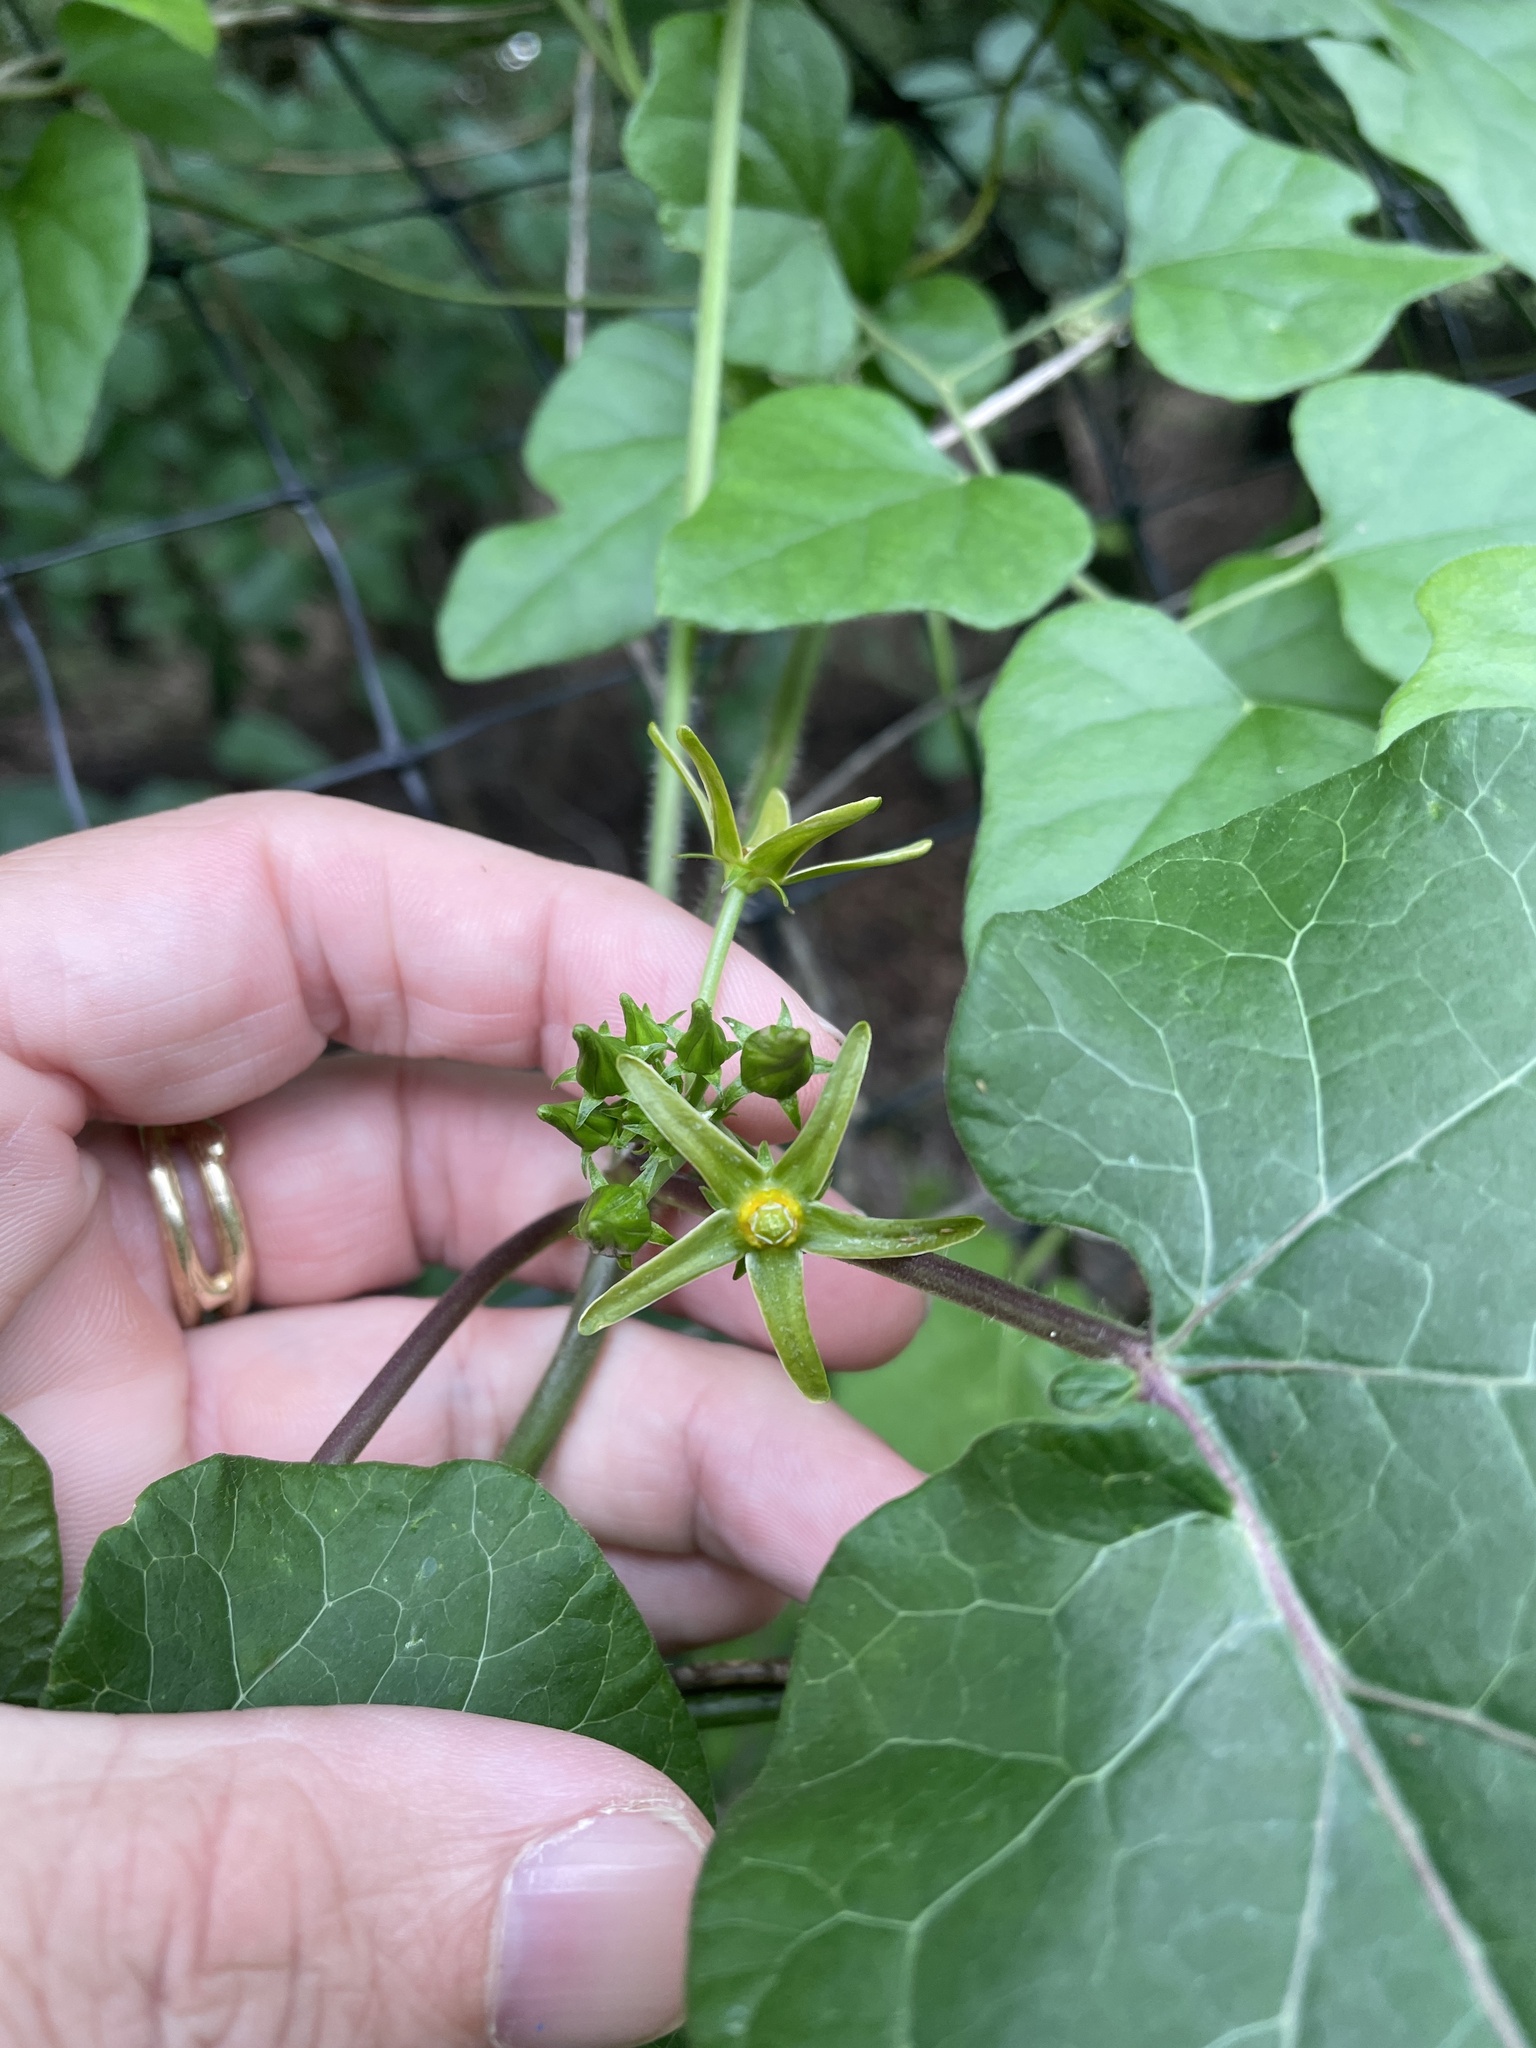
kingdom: Plantae
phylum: Tracheophyta
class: Magnoliopsida
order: Gentianales
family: Apocynaceae
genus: Gonolobus
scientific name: Gonolobus suberosus
